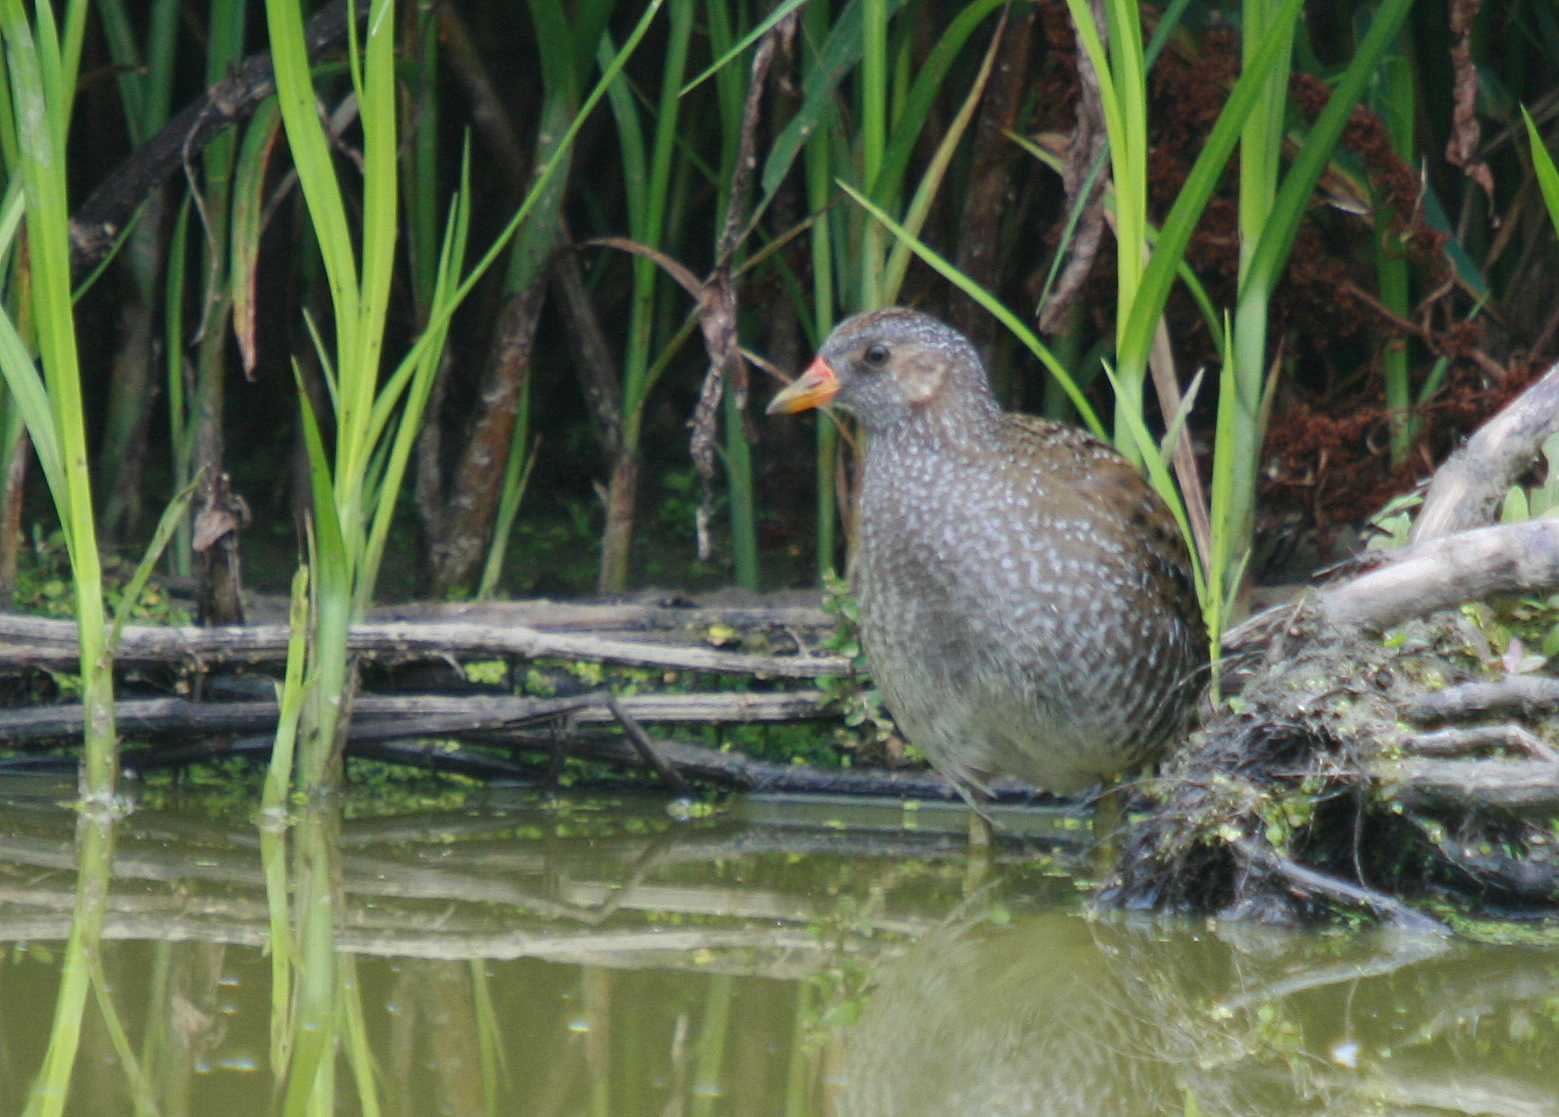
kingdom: Animalia
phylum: Chordata
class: Aves
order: Gruiformes
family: Rallidae
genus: Porzana
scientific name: Porzana porzana
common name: Spotted crake
